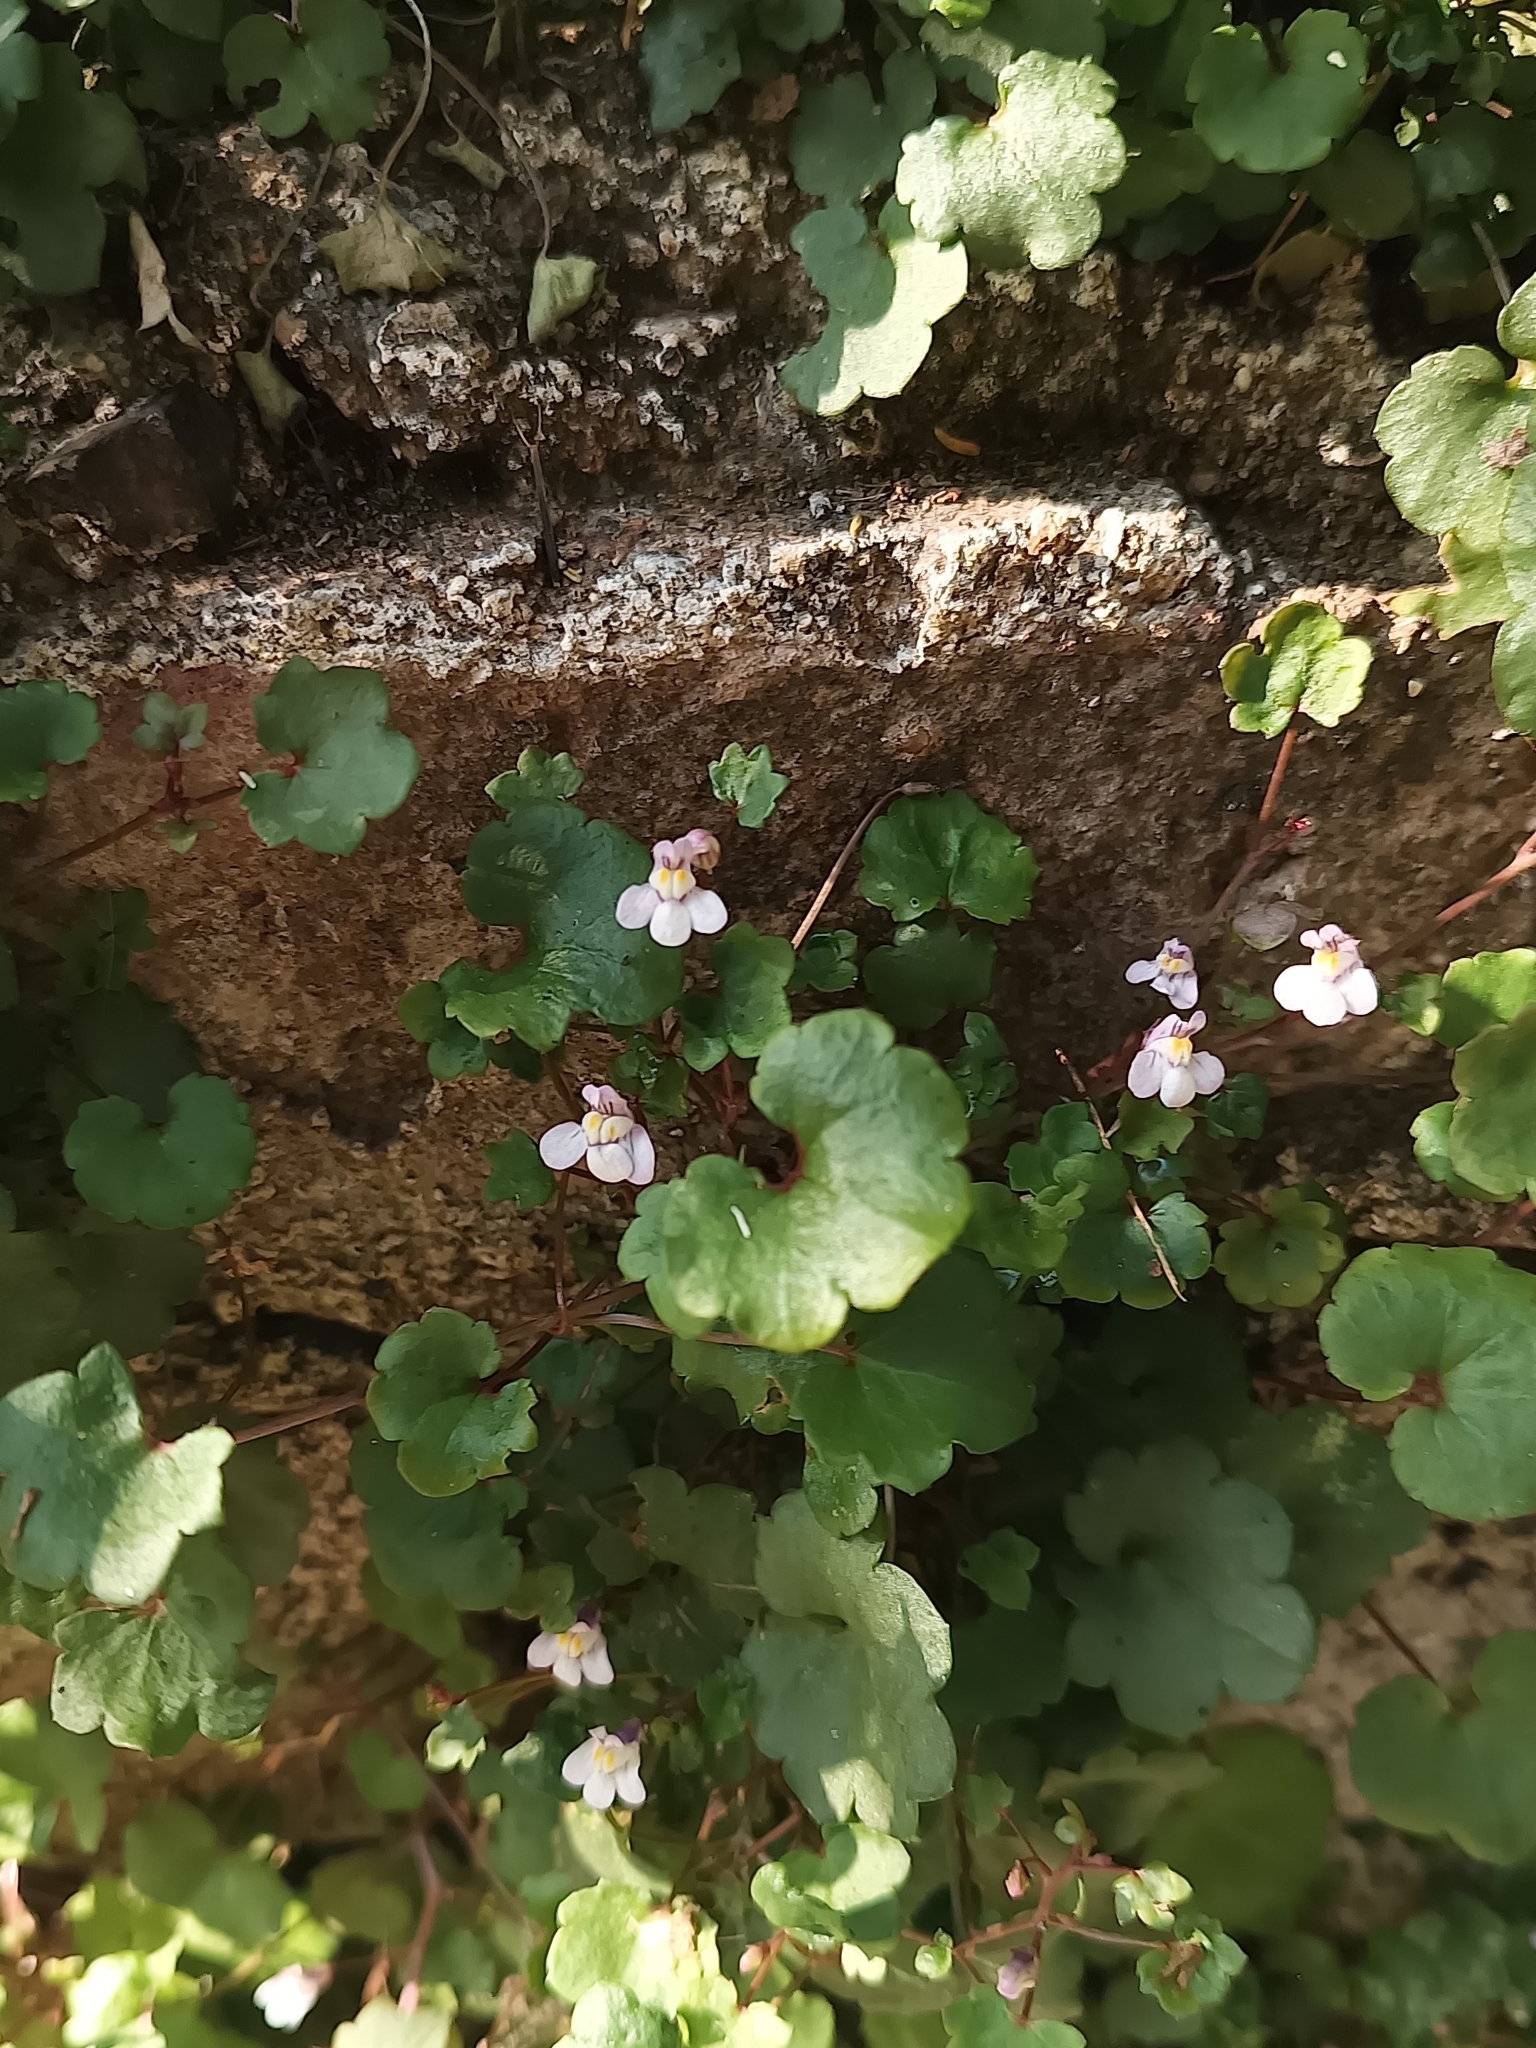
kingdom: Plantae
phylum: Tracheophyta
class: Magnoliopsida
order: Lamiales
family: Plantaginaceae
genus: Cymbalaria
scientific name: Cymbalaria muralis
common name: Ivy-leaved toadflax
